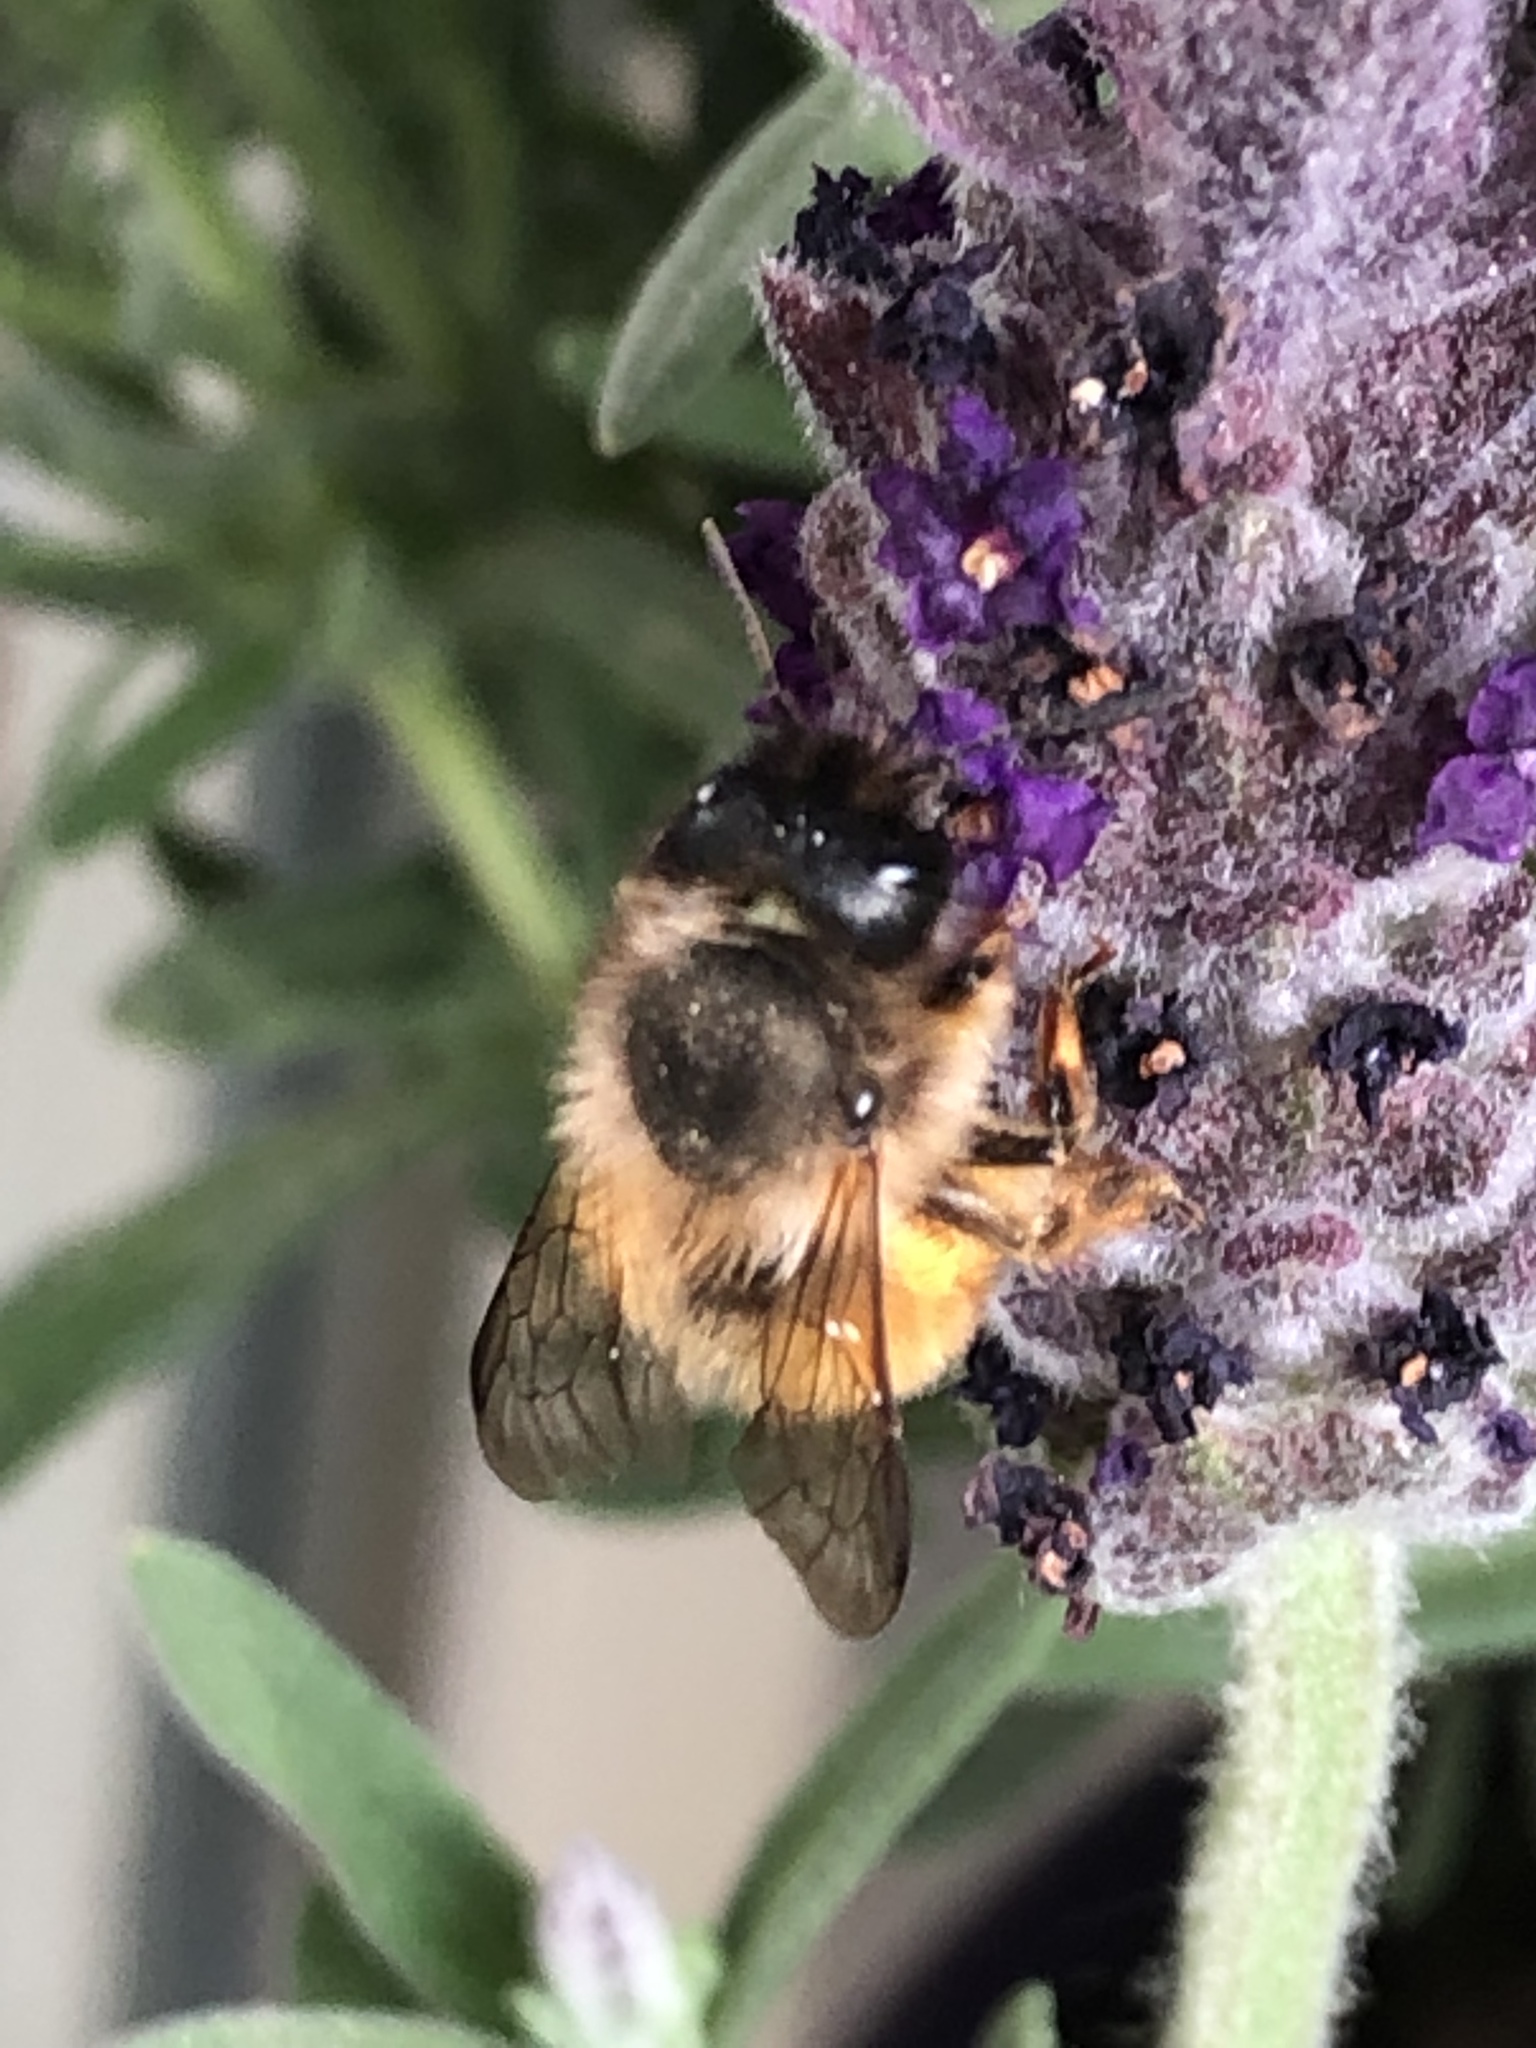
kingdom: Animalia
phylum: Arthropoda
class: Insecta
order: Hymenoptera
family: Megachilidae
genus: Osmia
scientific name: Osmia bicornis
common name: Red mason bee
